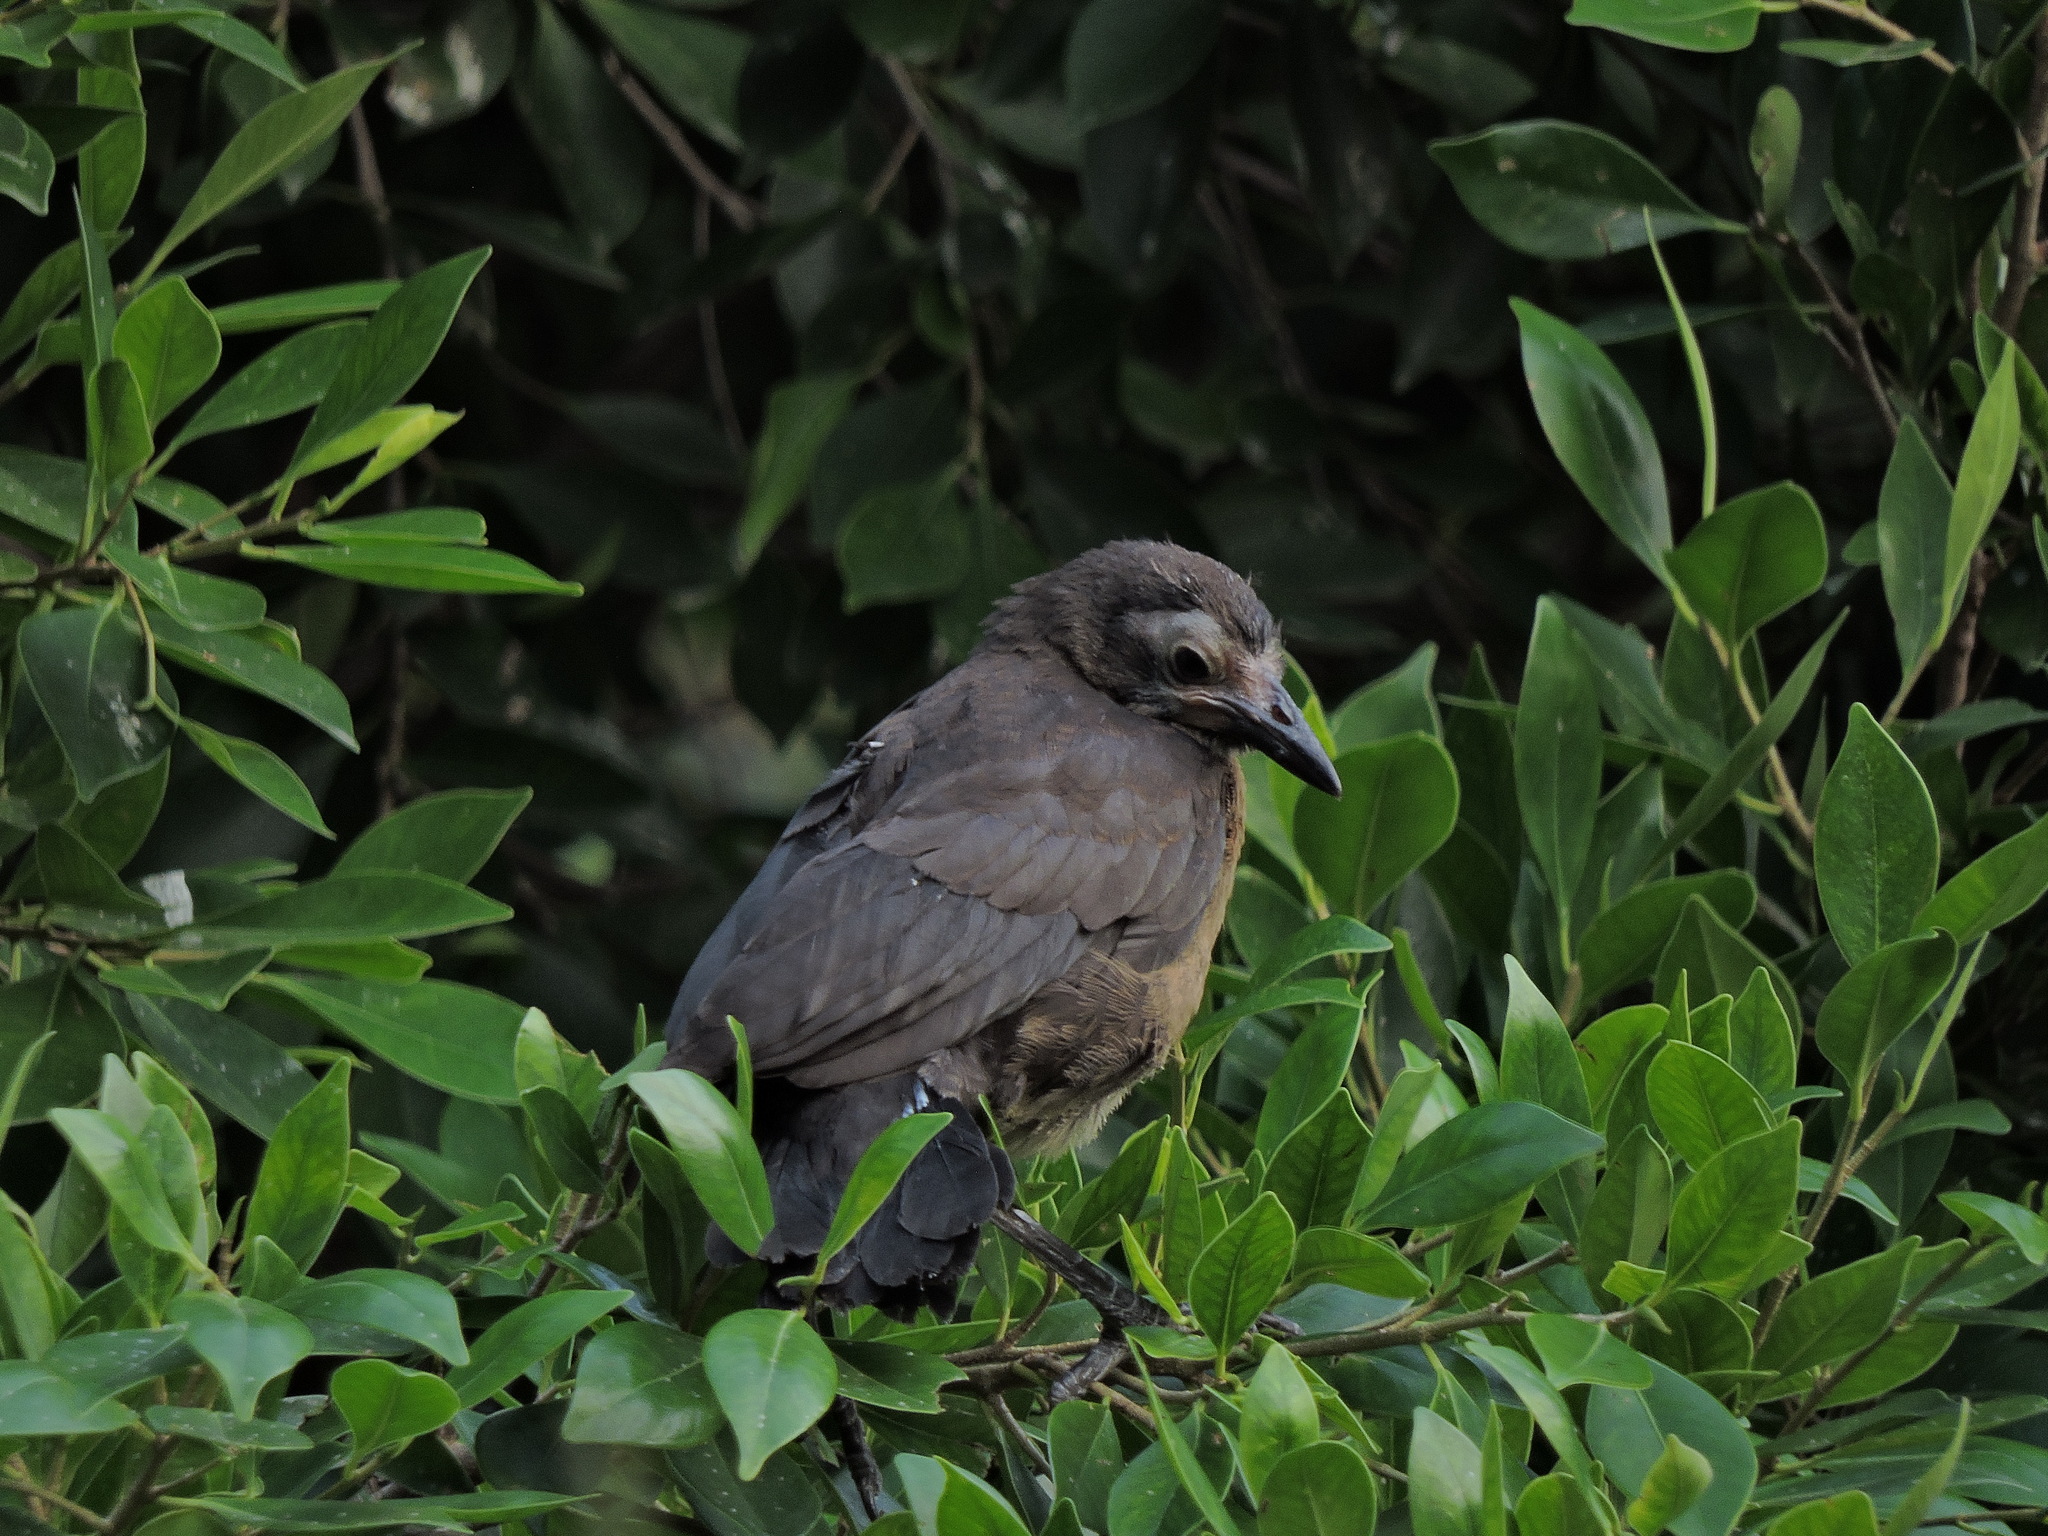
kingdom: Animalia
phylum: Chordata
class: Aves
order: Passeriformes
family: Icteridae
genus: Quiscalus
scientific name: Quiscalus mexicanus
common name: Great-tailed grackle
